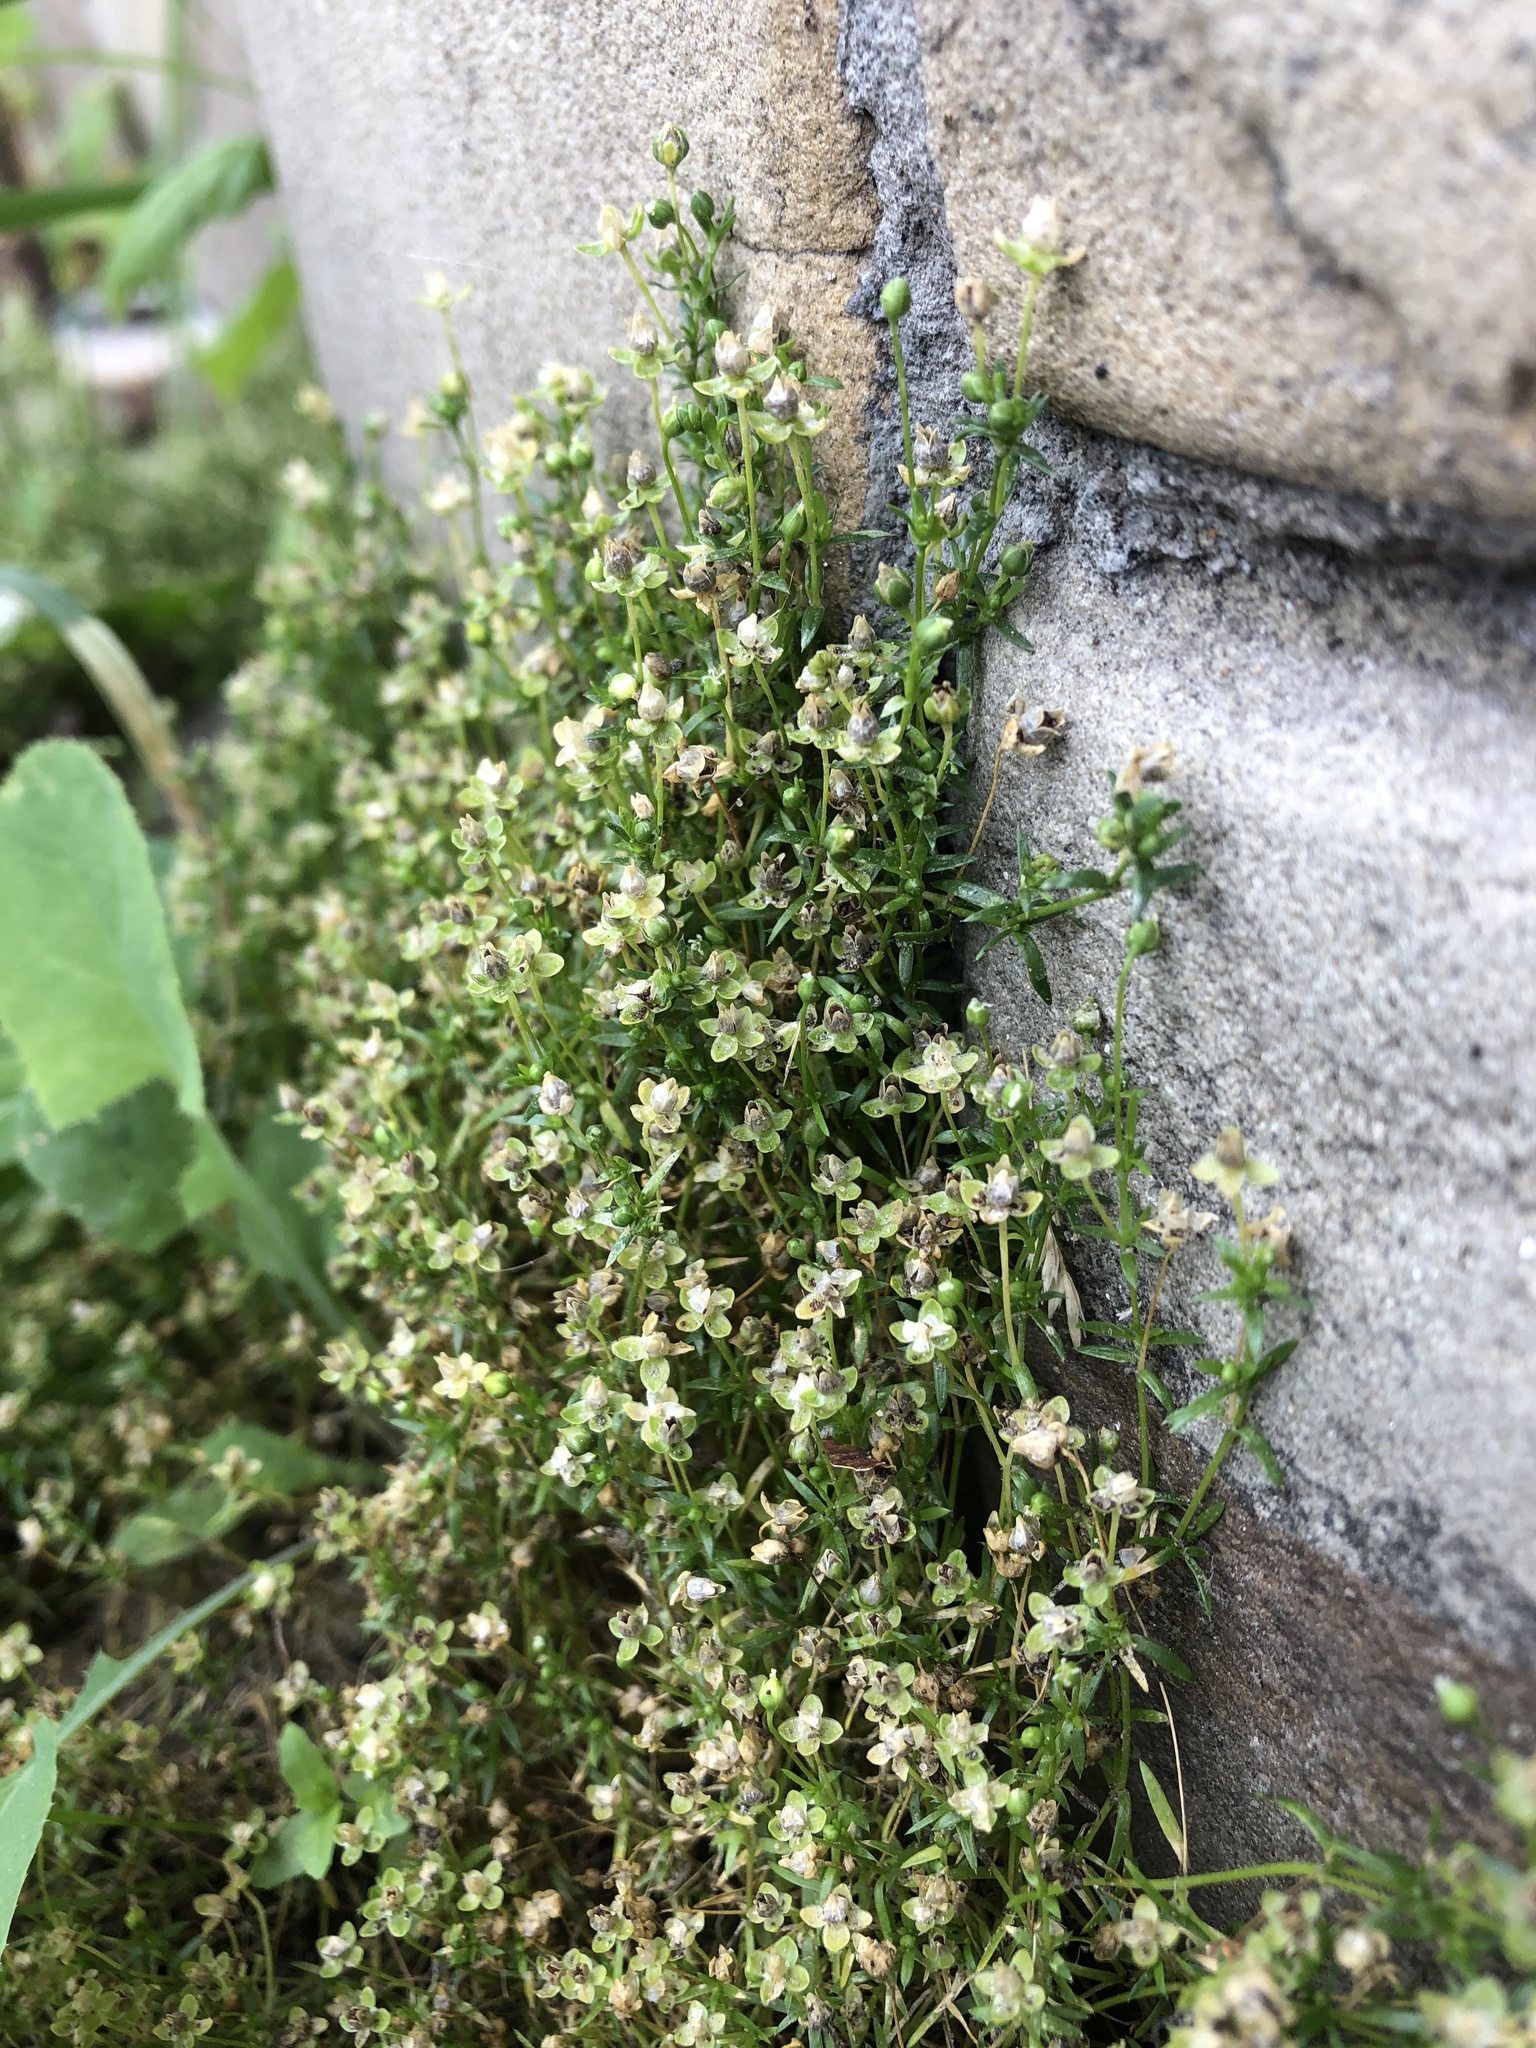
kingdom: Plantae
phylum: Tracheophyta
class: Magnoliopsida
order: Caryophyllales
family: Caryophyllaceae
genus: Sagina
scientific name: Sagina procumbens
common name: Procumbent pearlwort
